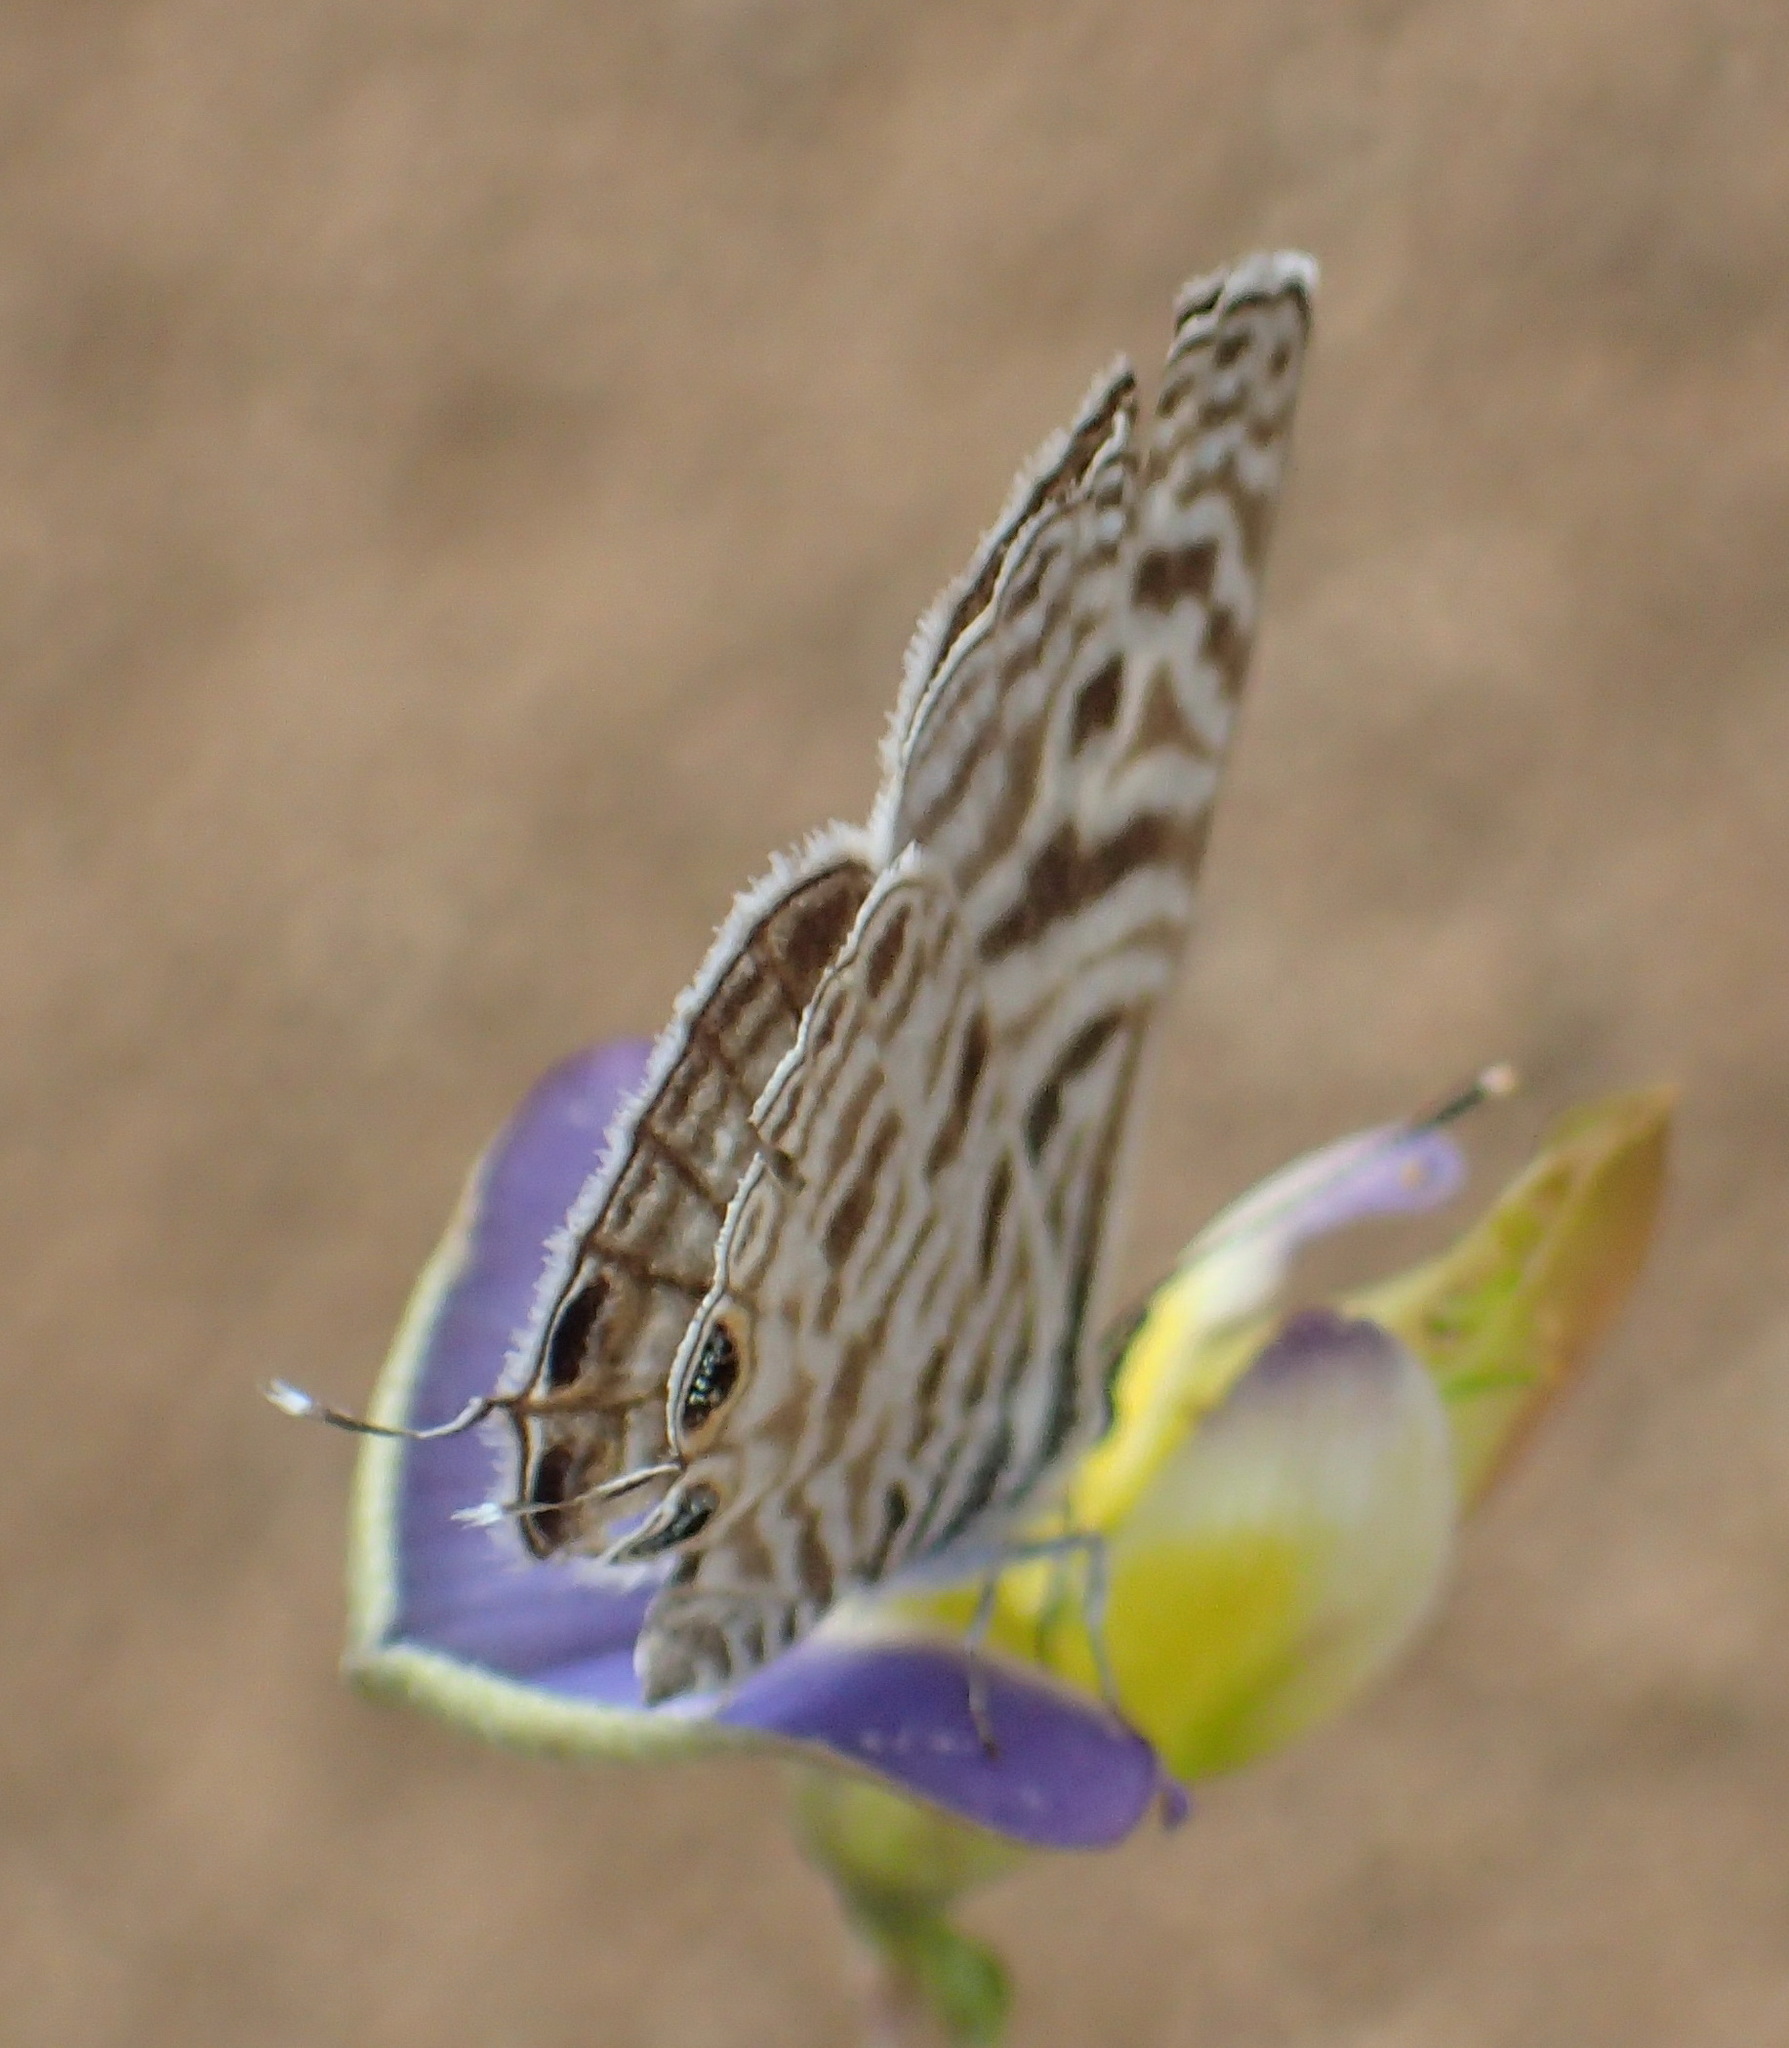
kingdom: Animalia
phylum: Arthropoda
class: Insecta
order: Lepidoptera
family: Lycaenidae
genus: Leptotes
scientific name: Leptotes
